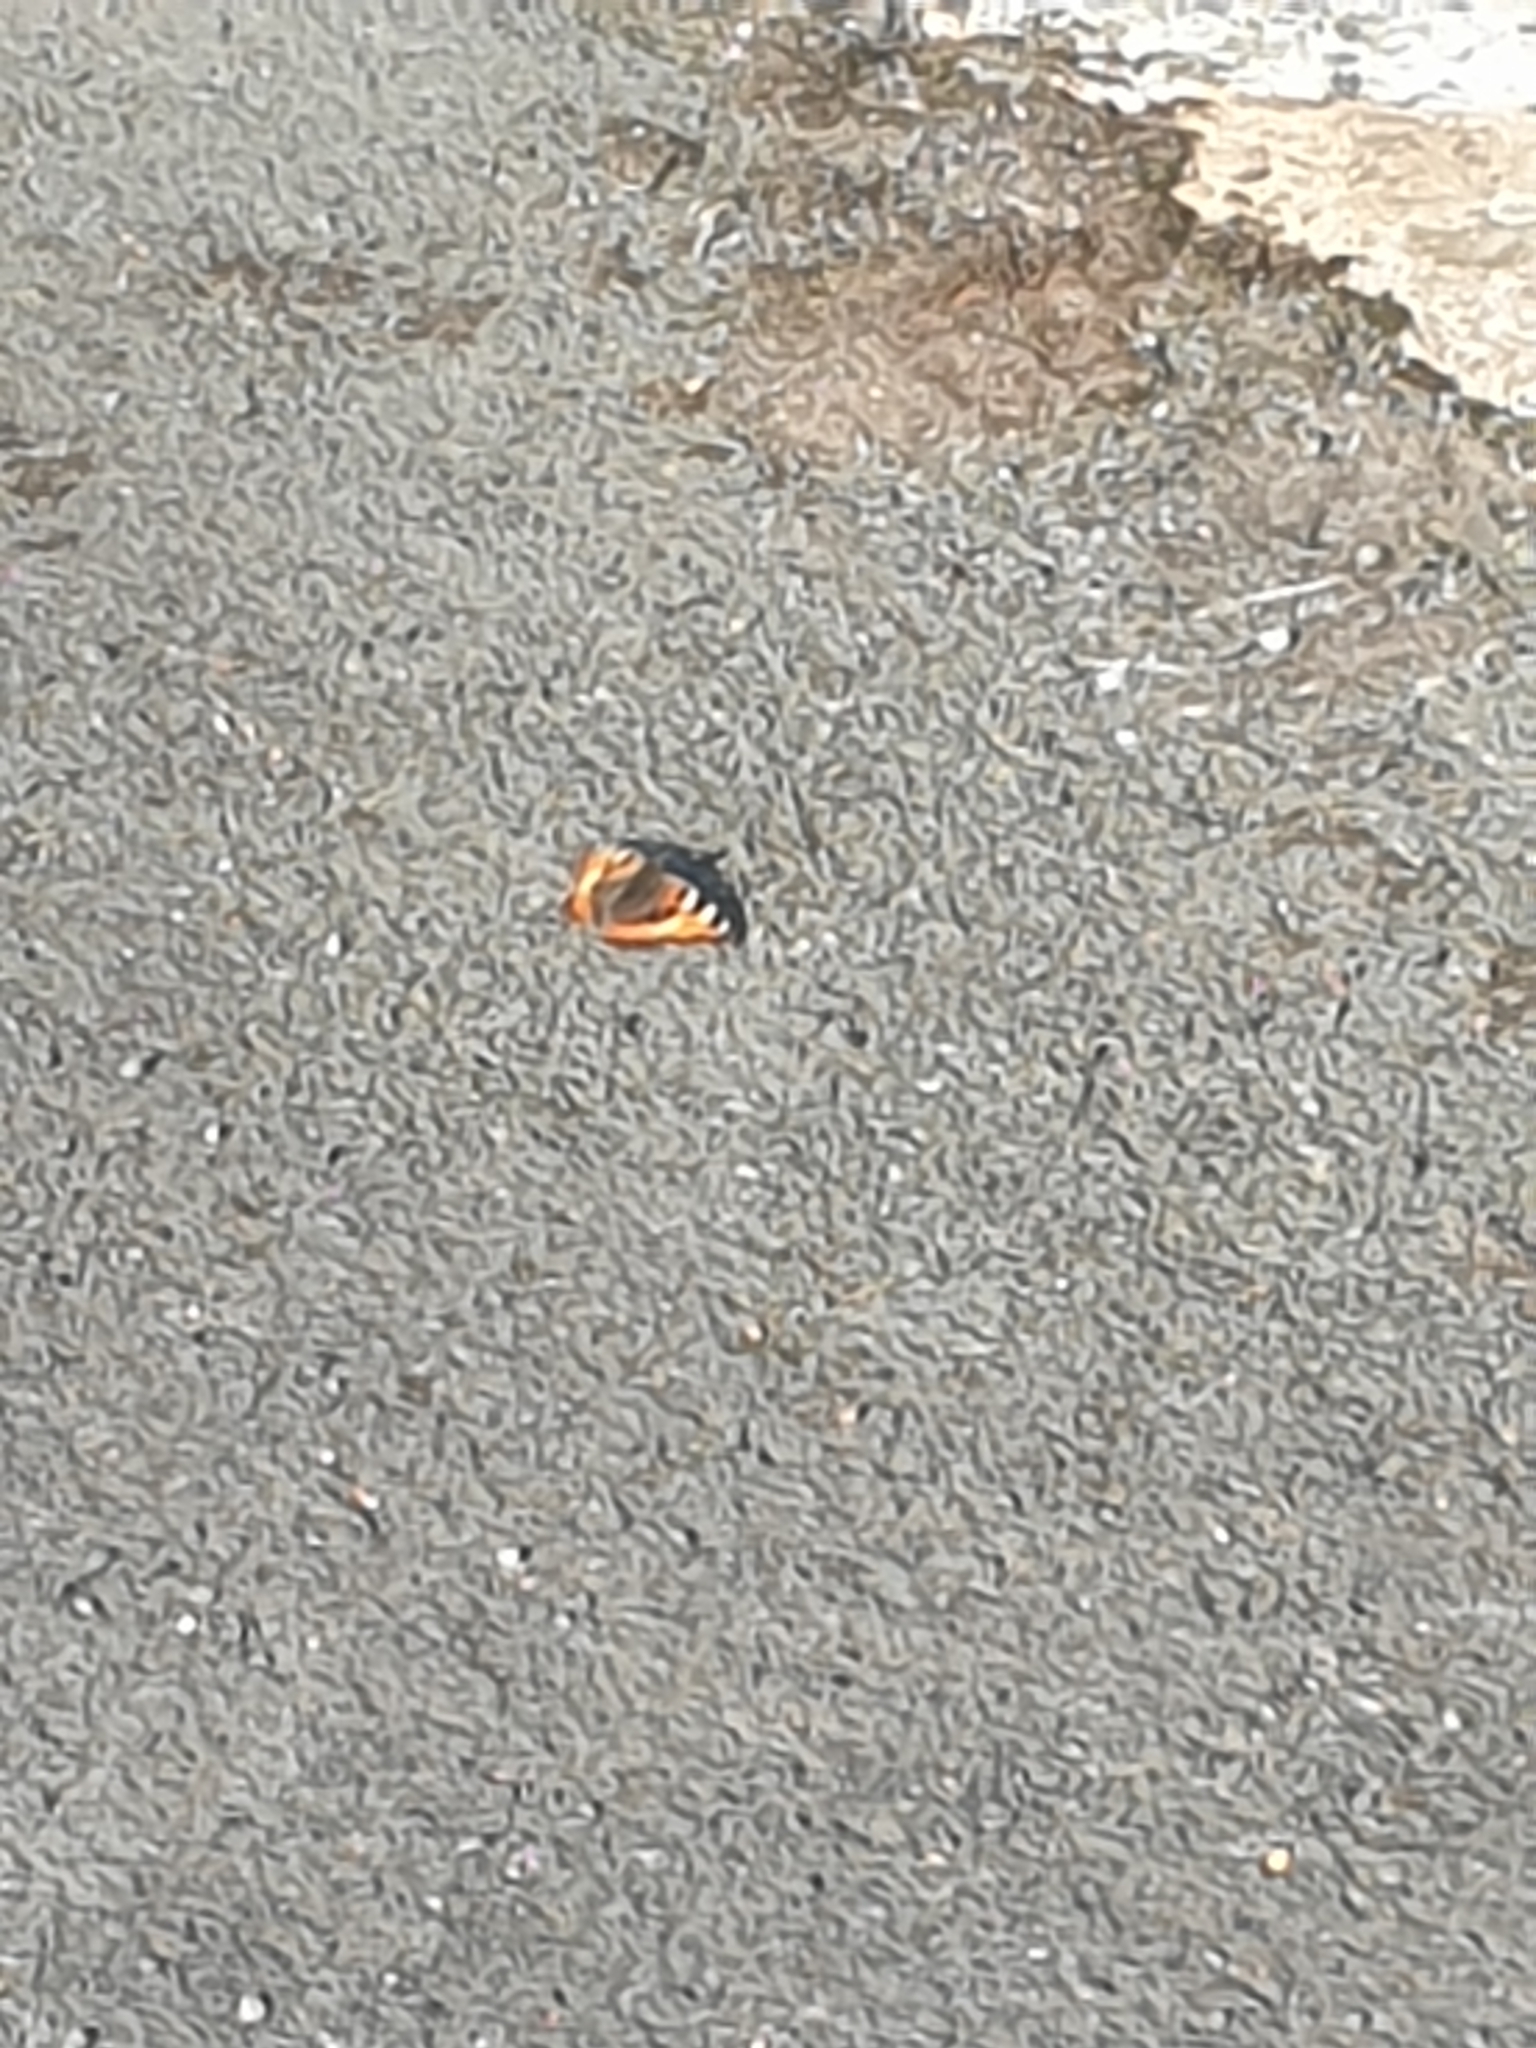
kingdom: Animalia
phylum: Arthropoda
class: Insecta
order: Lepidoptera
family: Nymphalidae
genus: Aglais
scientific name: Aglais urticae
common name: Small tortoiseshell
